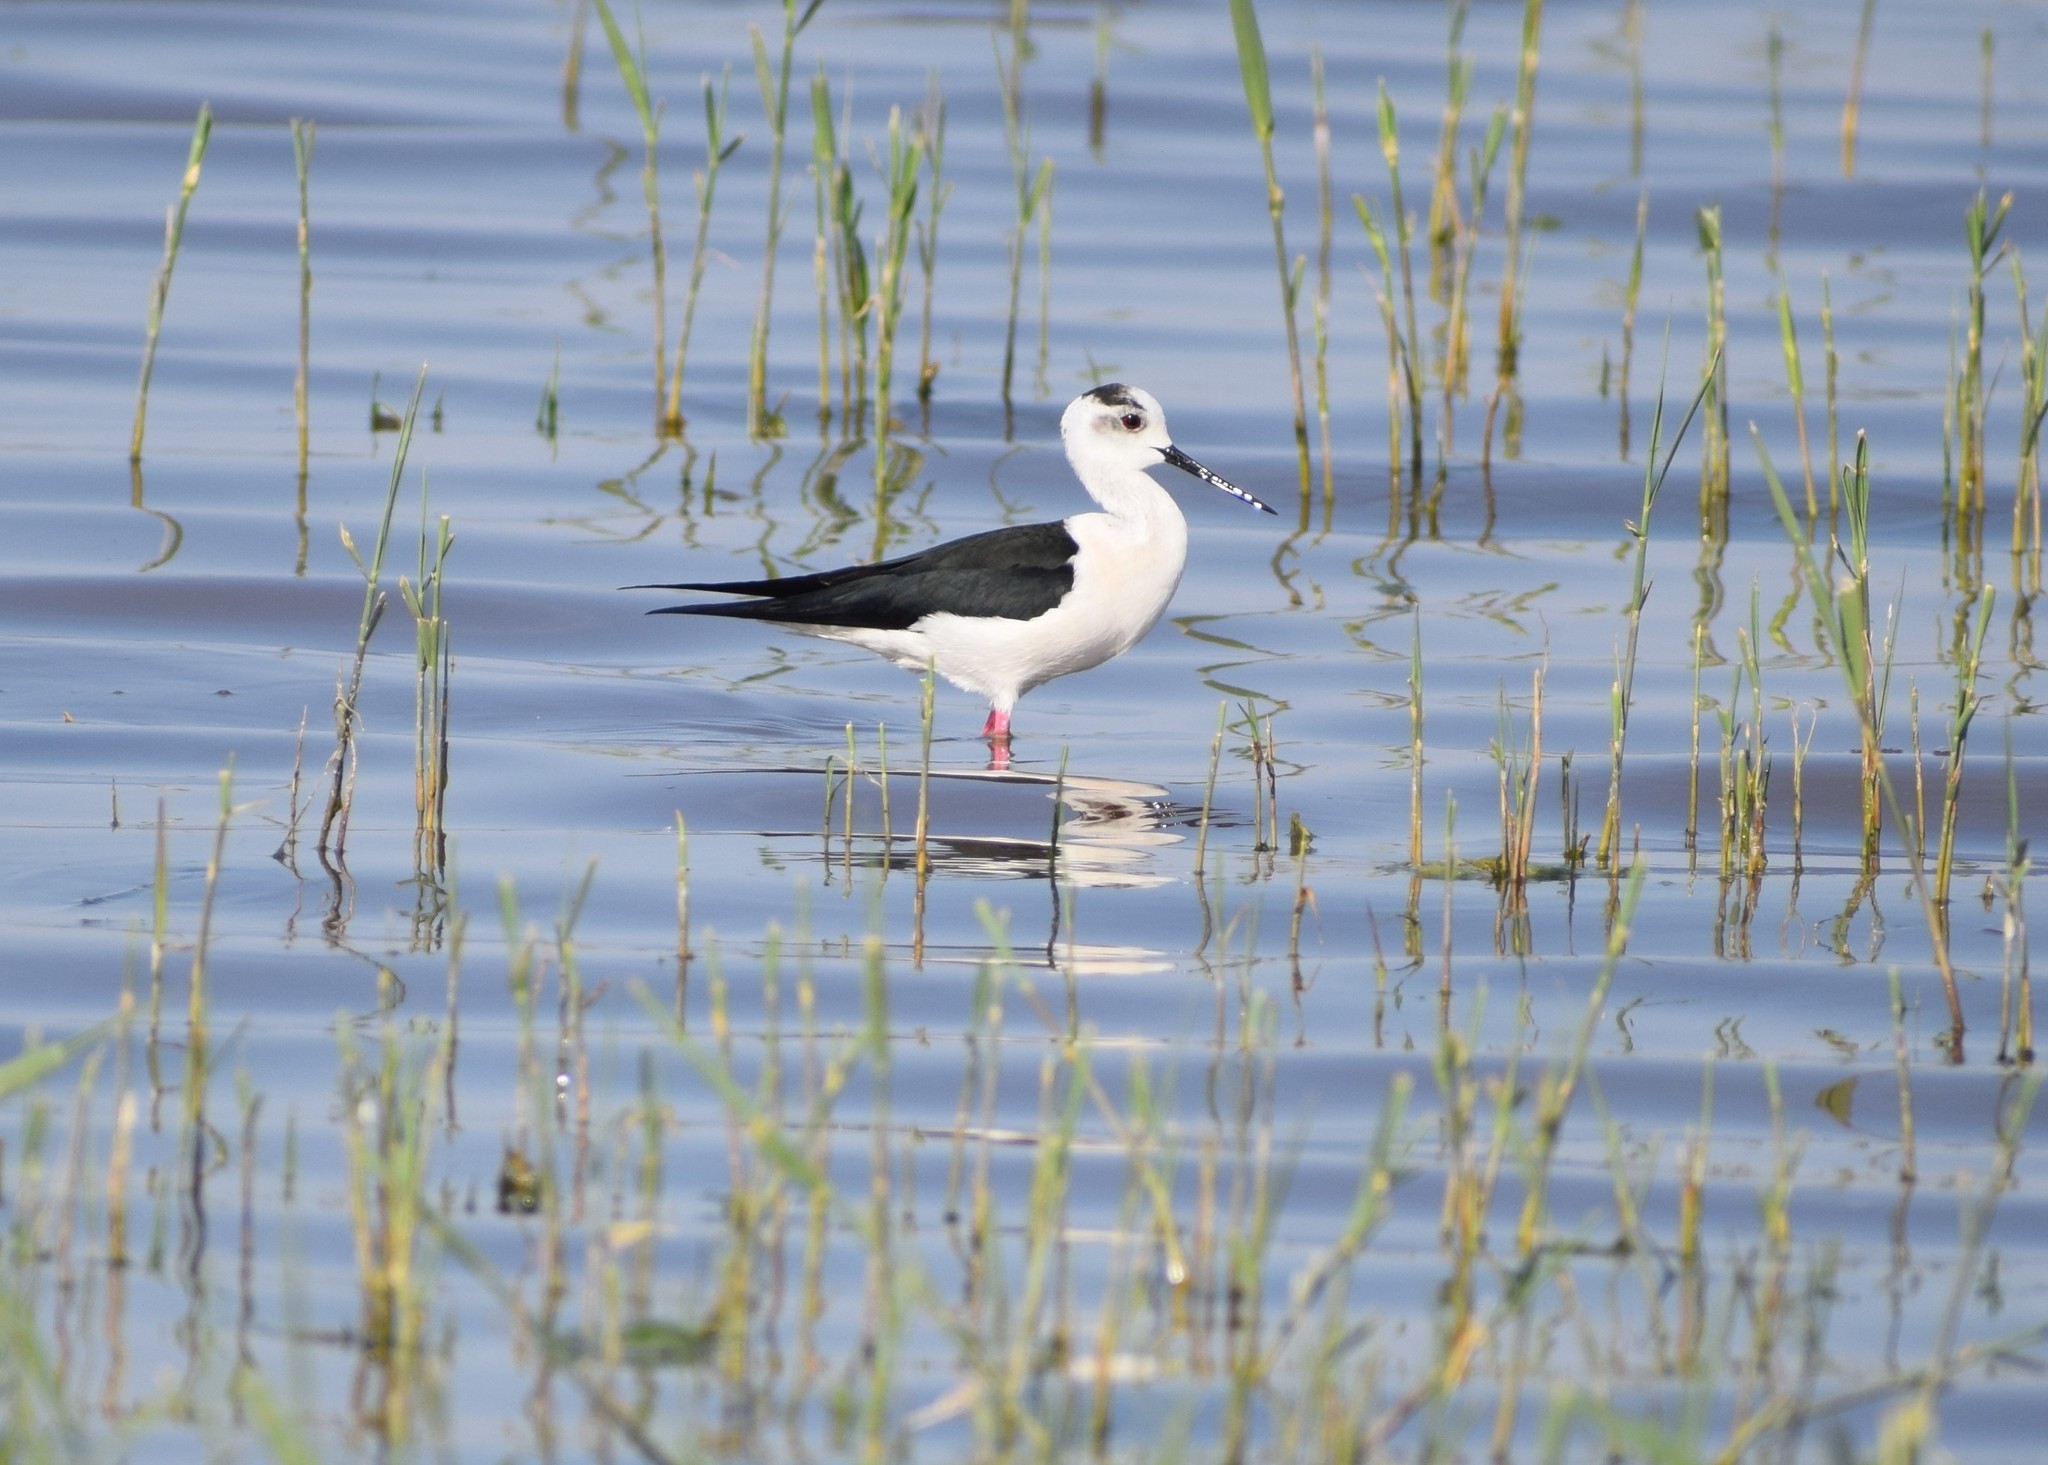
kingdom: Animalia
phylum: Chordata
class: Aves
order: Charadriiformes
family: Recurvirostridae
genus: Himantopus
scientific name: Himantopus himantopus
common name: Black-winged stilt
